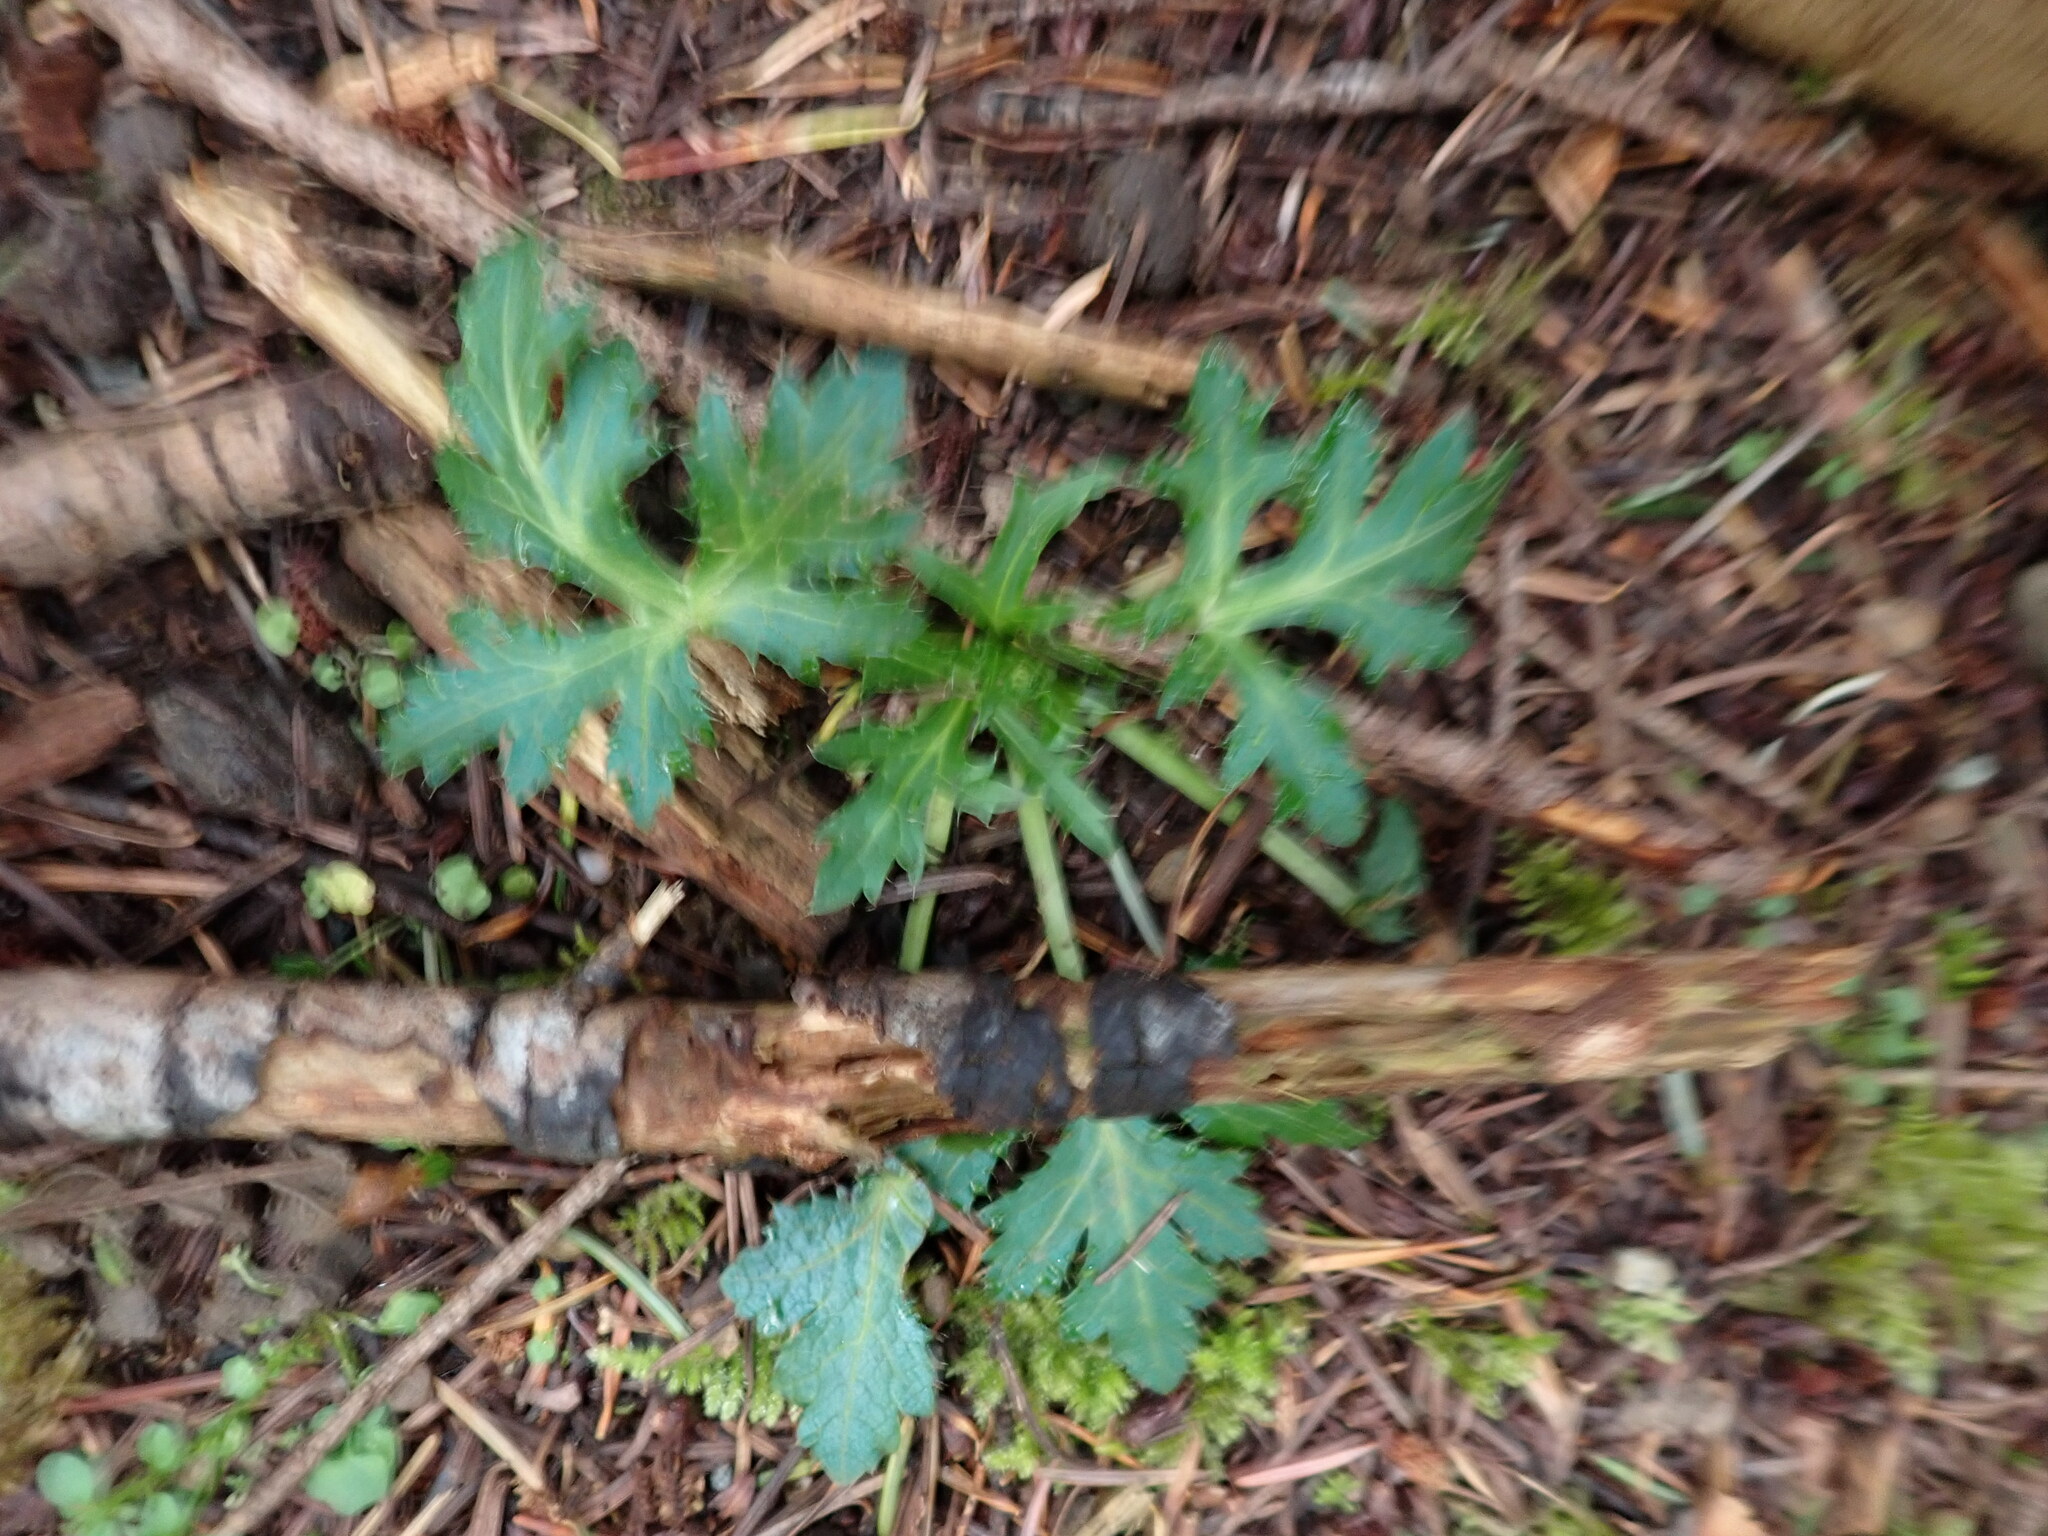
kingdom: Plantae
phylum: Tracheophyta
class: Magnoliopsida
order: Apiales
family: Apiaceae
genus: Sanicula
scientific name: Sanicula crassicaulis
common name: Western snakeroot
